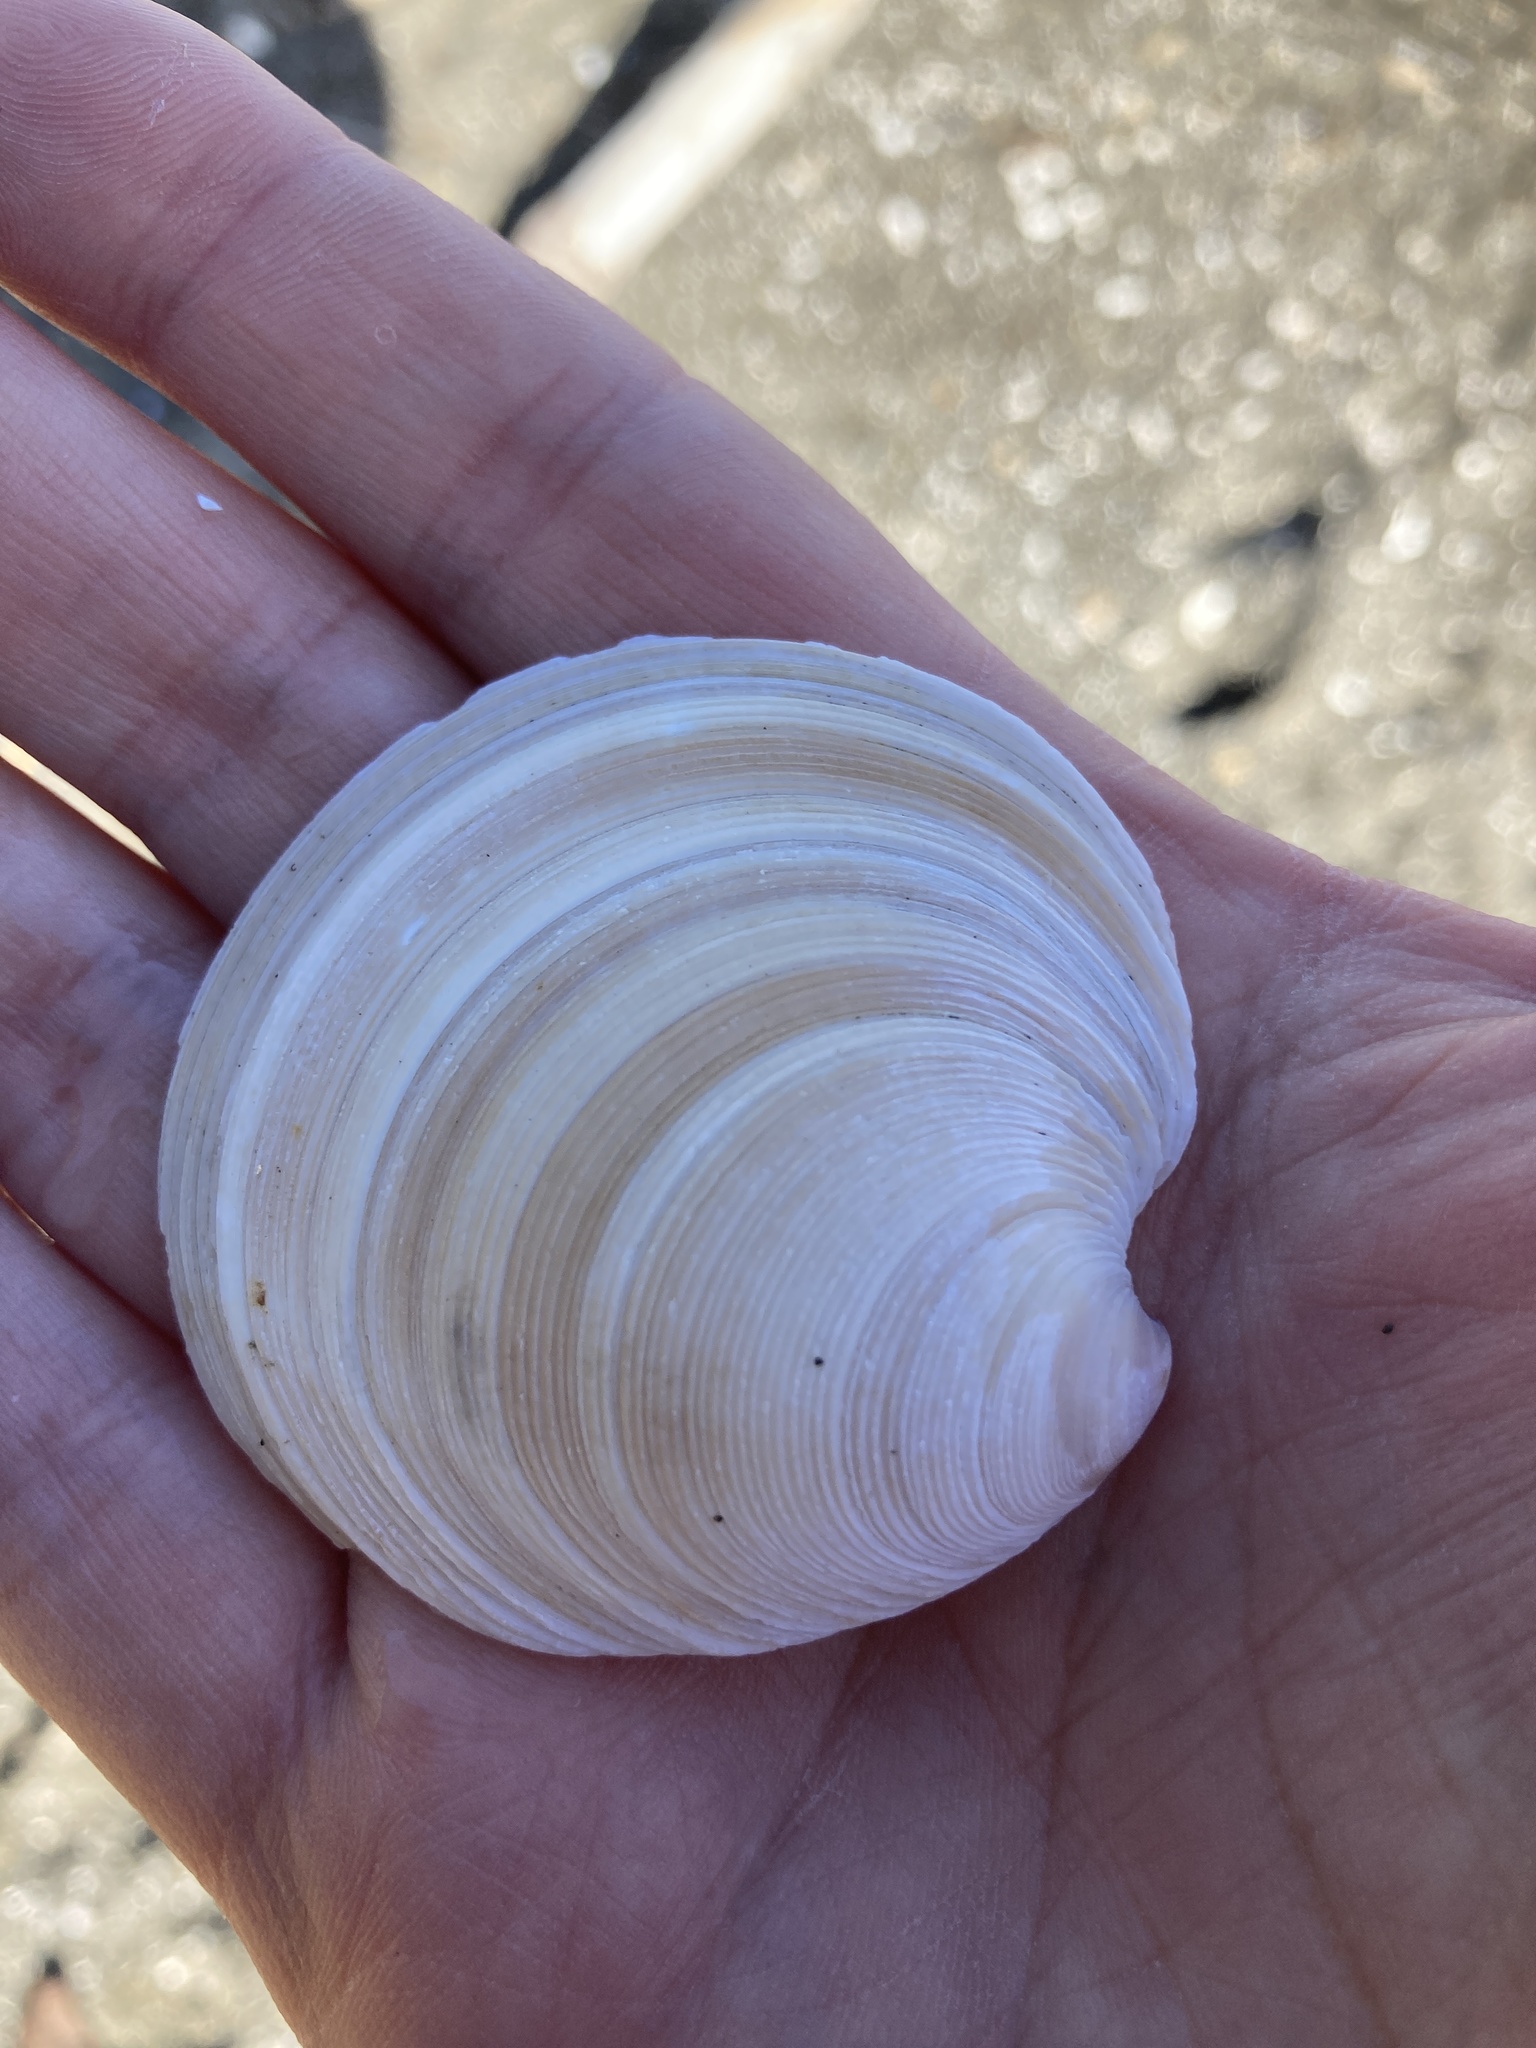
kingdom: Animalia
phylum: Mollusca
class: Bivalvia
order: Venerida
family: Veneridae
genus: Dosinia
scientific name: Dosinia anus
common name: Old-woman dosinia
